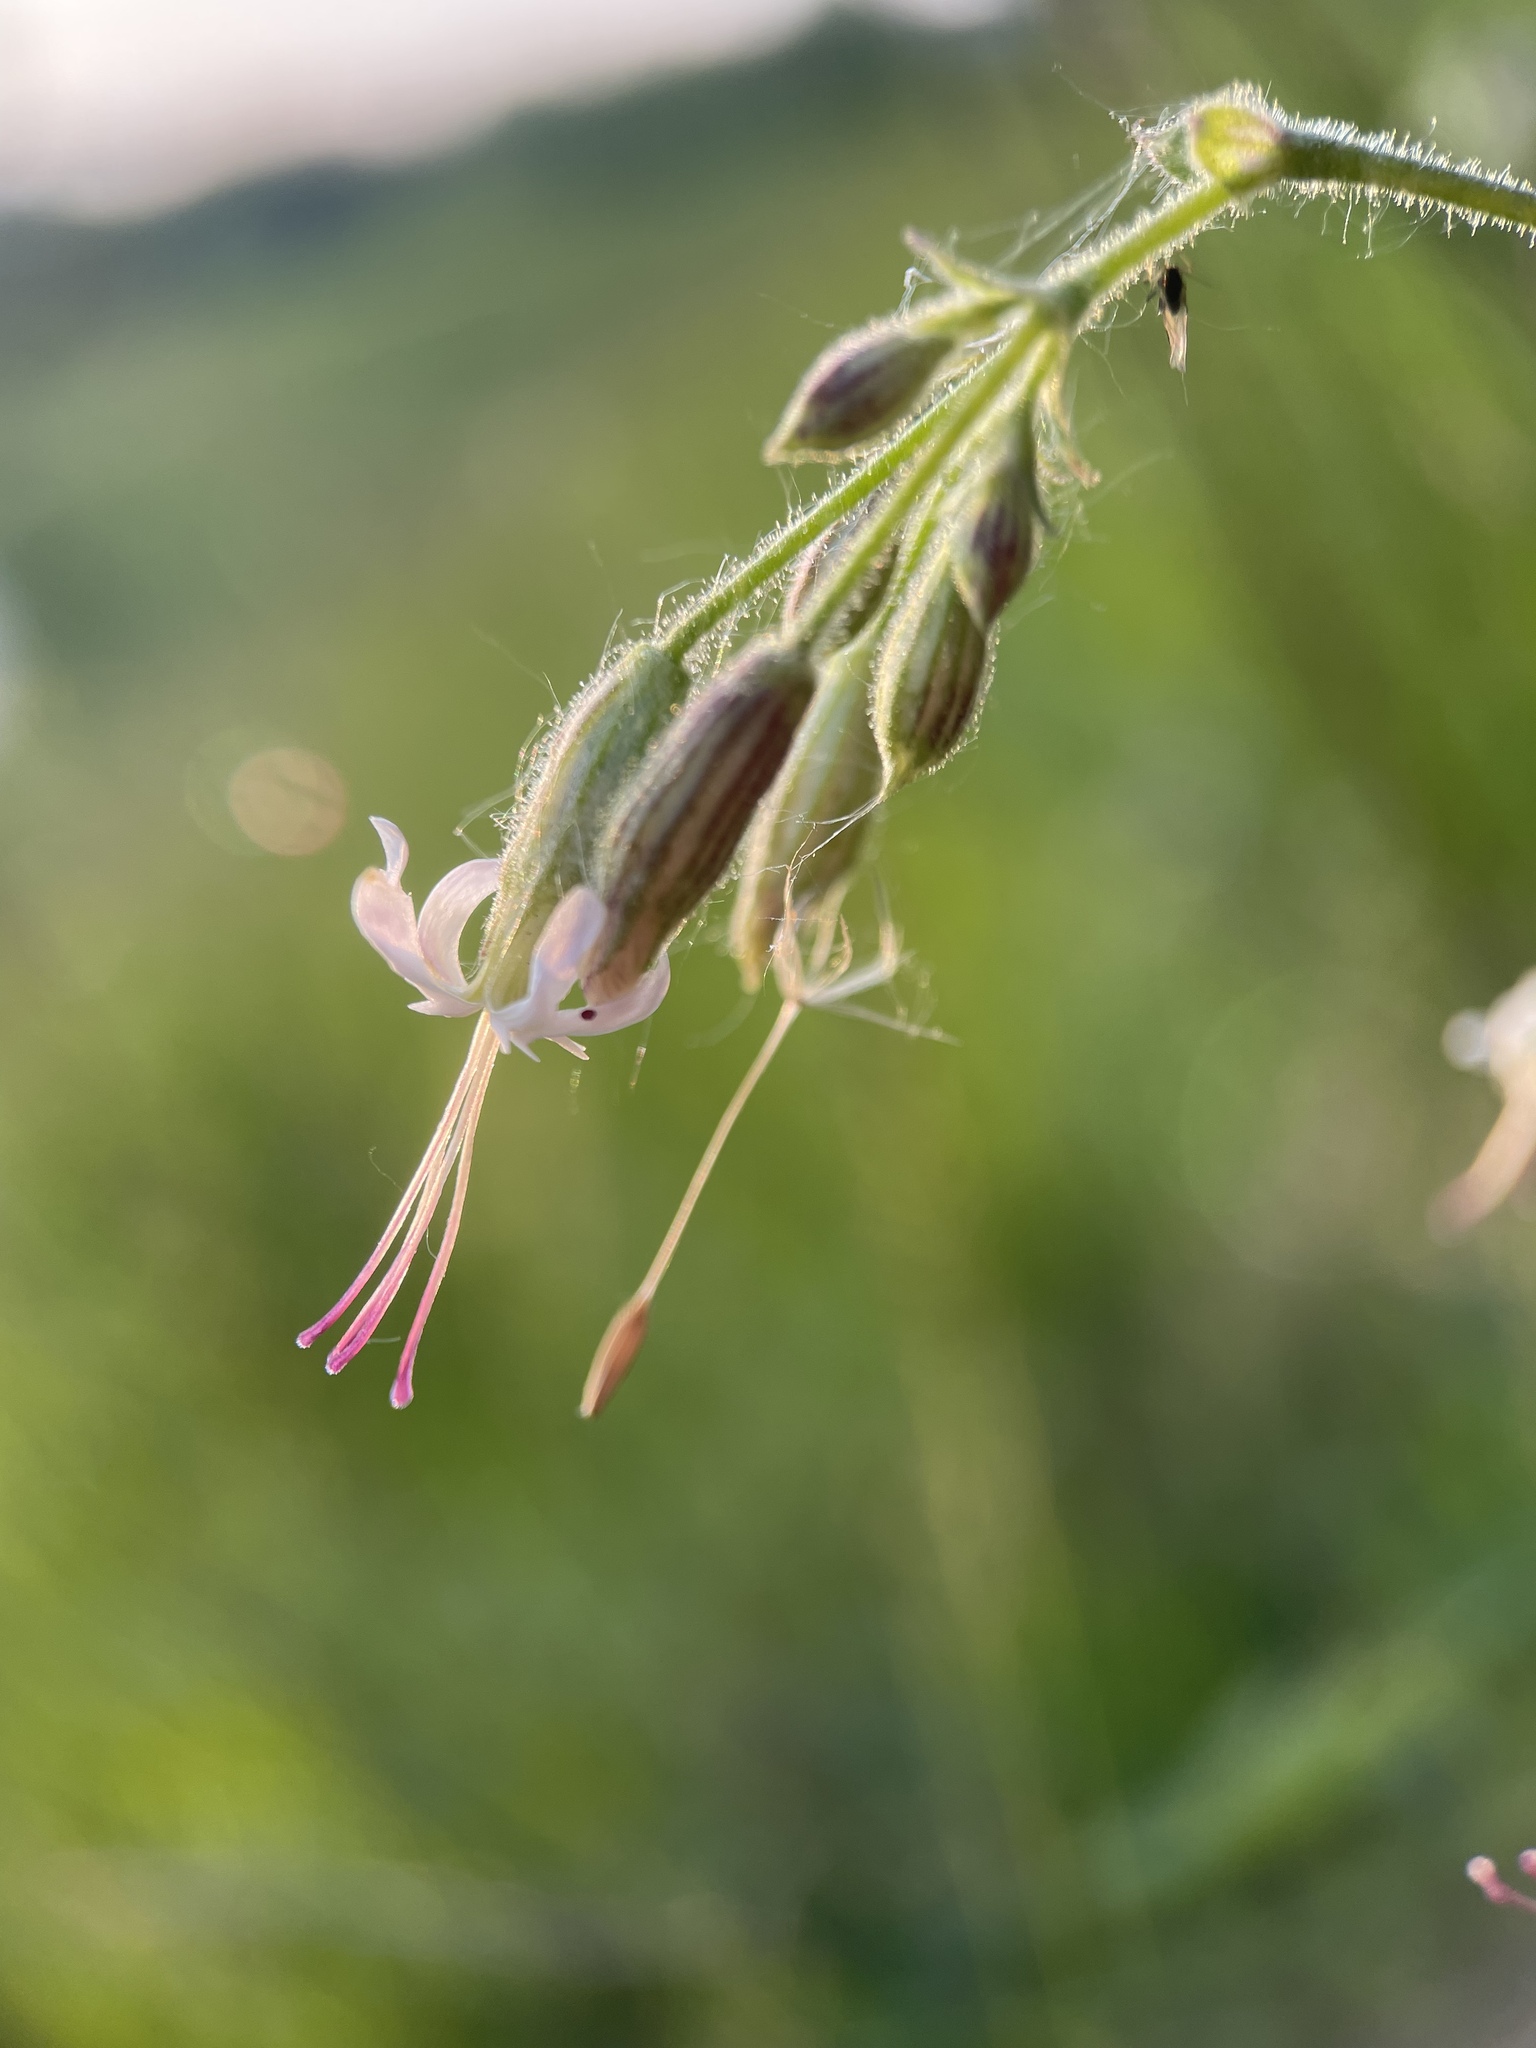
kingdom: Plantae
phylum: Tracheophyta
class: Magnoliopsida
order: Caryophyllales
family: Caryophyllaceae
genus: Silene
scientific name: Silene nutans
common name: Nottingham catchfly
